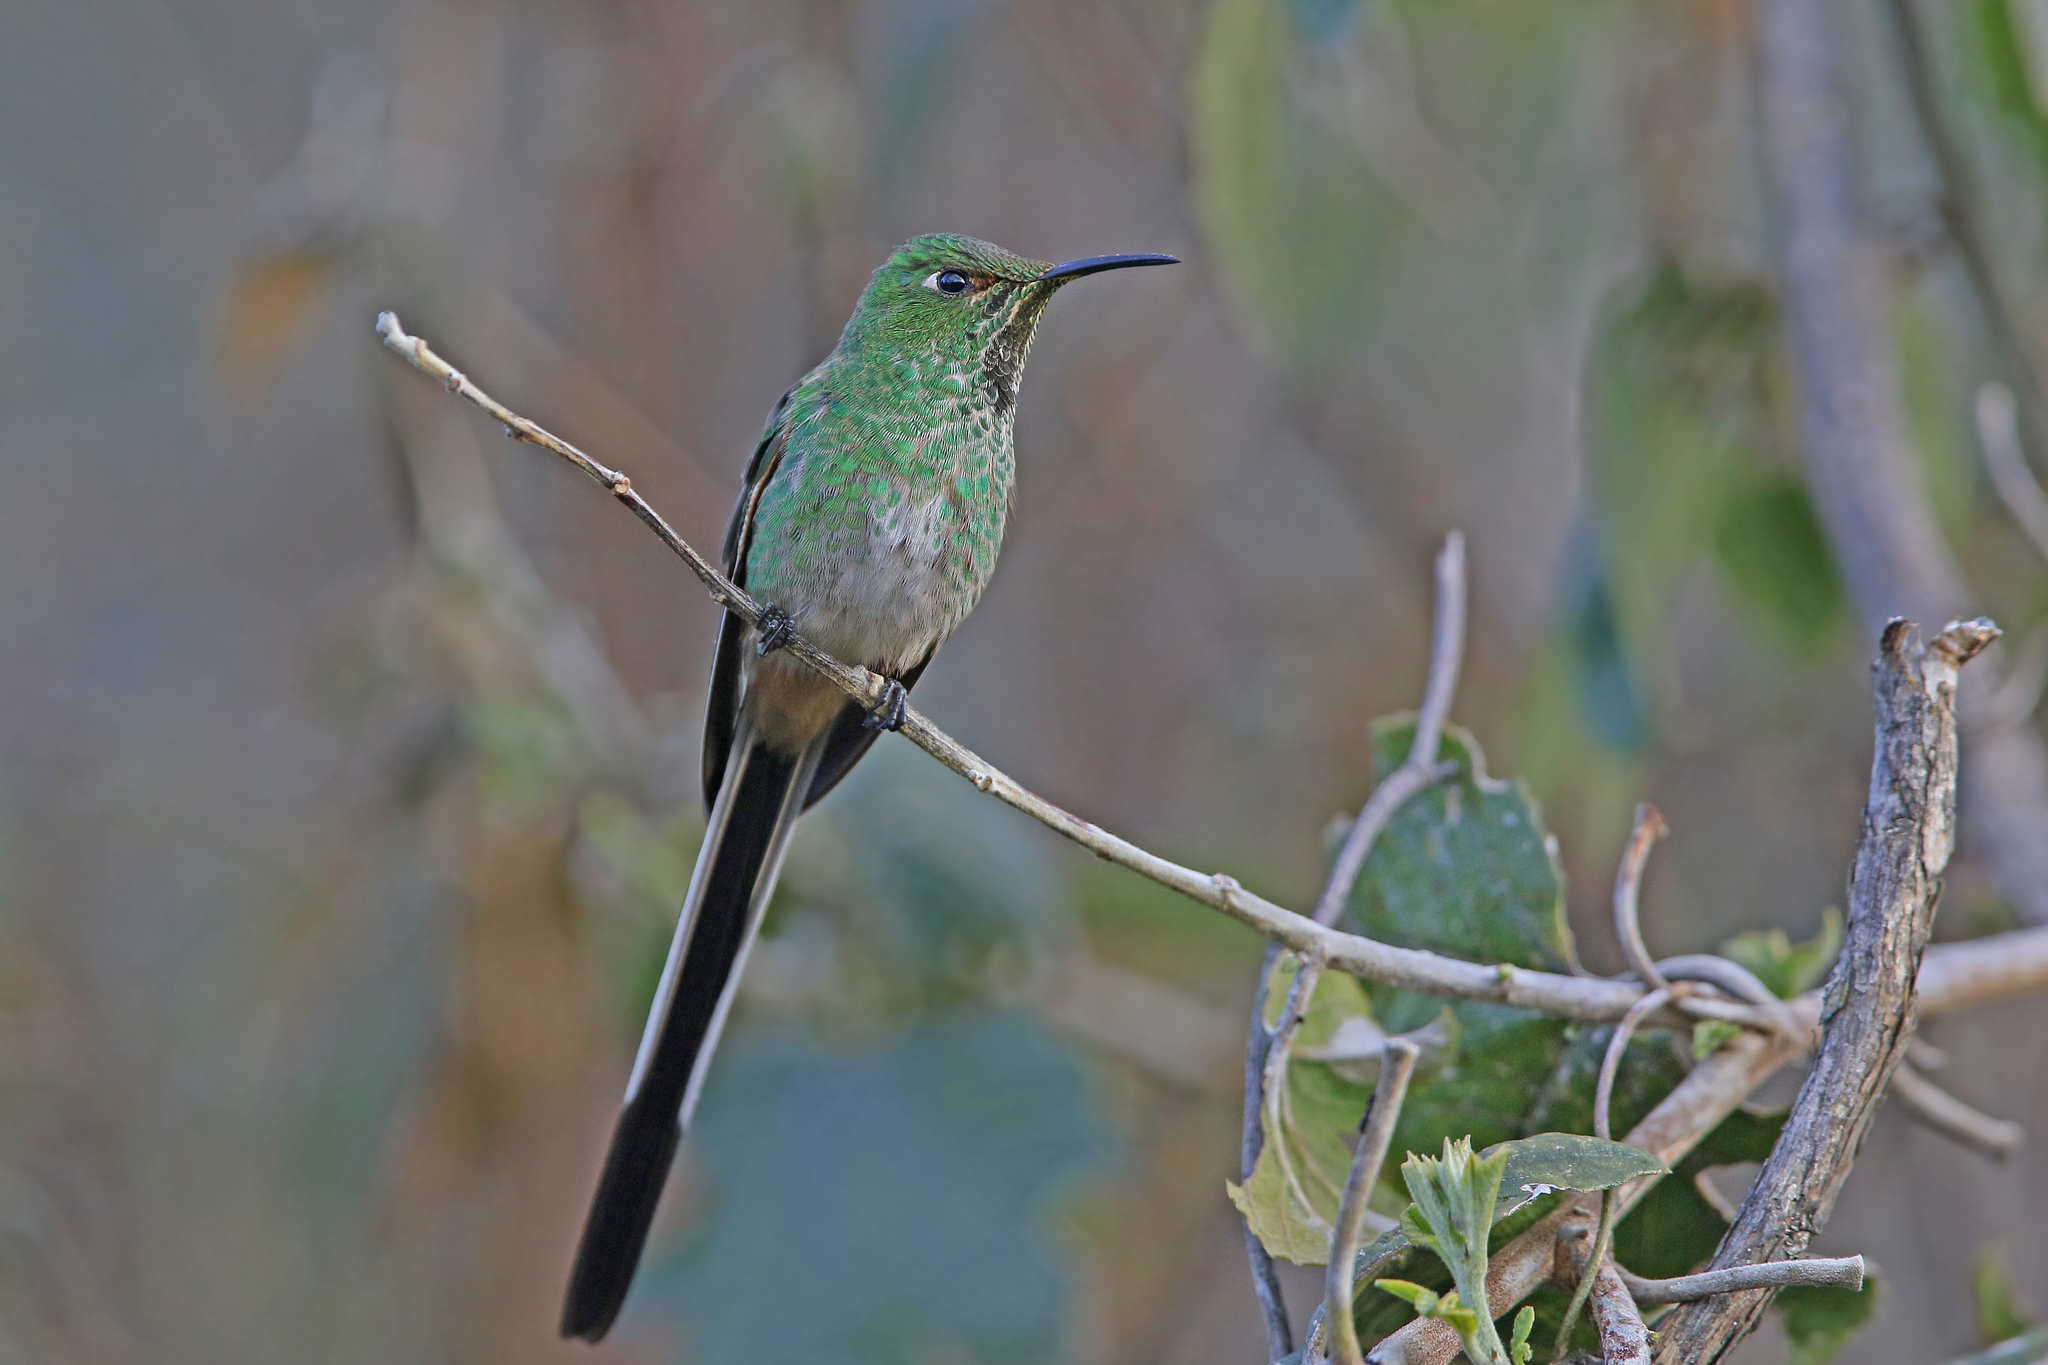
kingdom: Animalia
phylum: Chordata
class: Aves
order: Apodiformes
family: Trochilidae
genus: Lesbia
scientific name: Lesbia victoriae
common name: Black-tailed trainbearer
